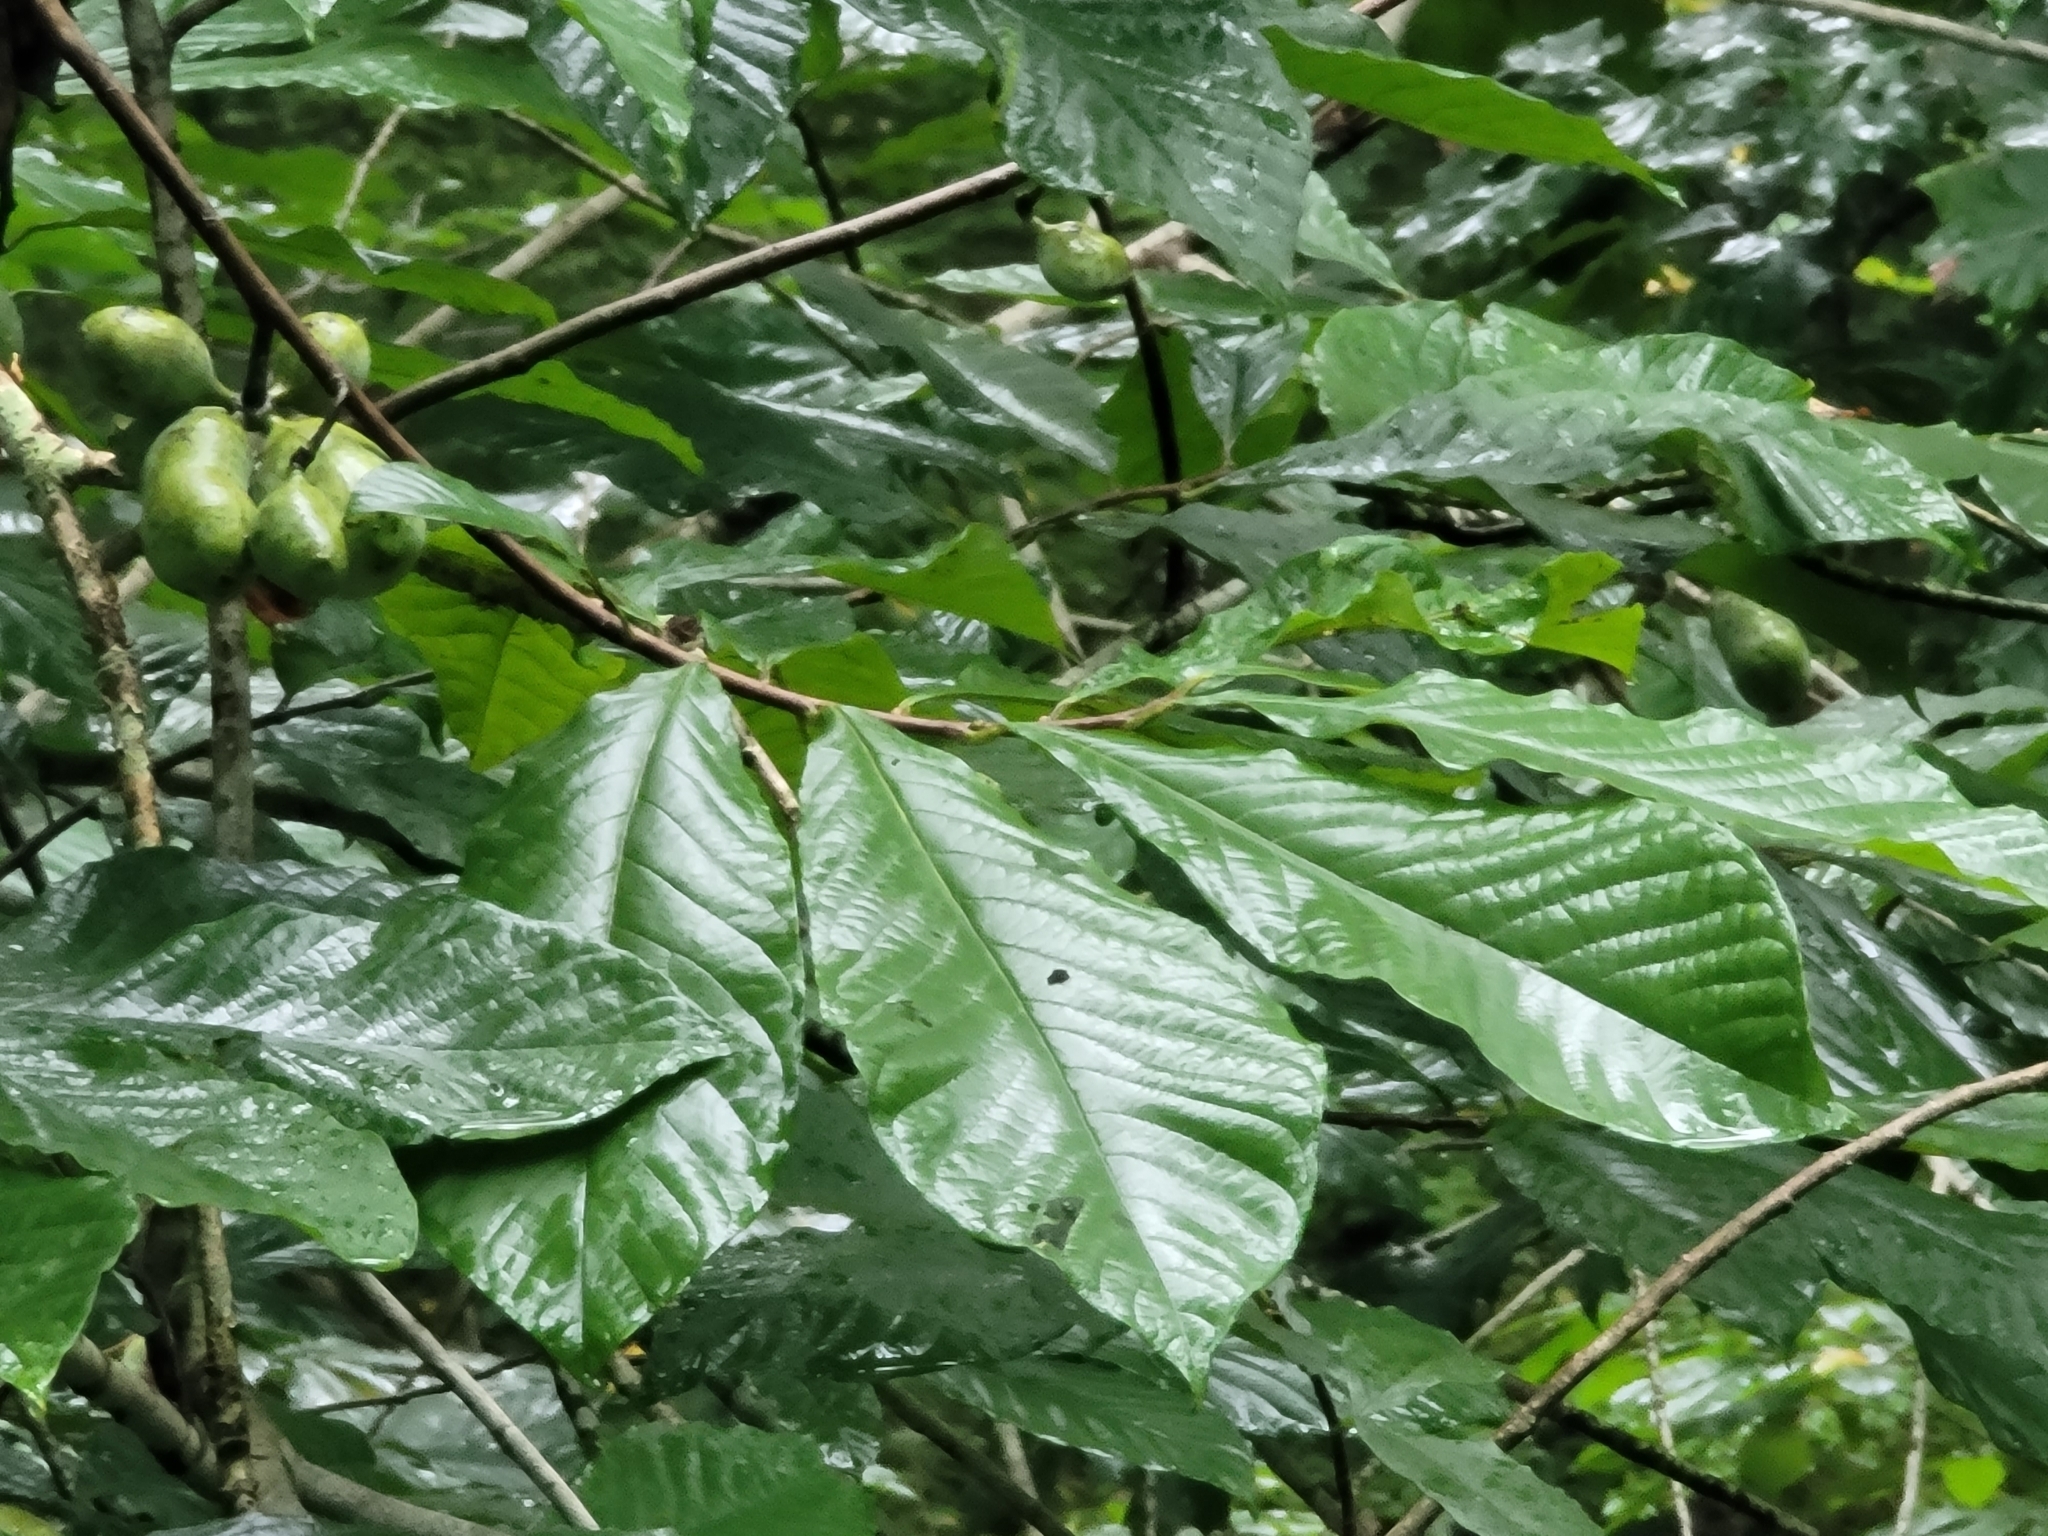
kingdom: Plantae
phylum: Tracheophyta
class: Magnoliopsida
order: Magnoliales
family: Annonaceae
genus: Asimina
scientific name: Asimina triloba
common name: Dog-banana
